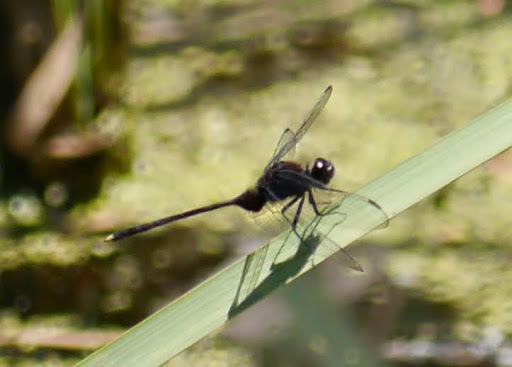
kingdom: Animalia
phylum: Arthropoda
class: Insecta
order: Odonata
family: Libellulidae
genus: Erythemis
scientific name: Erythemis plebeja
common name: Pin-tailed pondhawk
